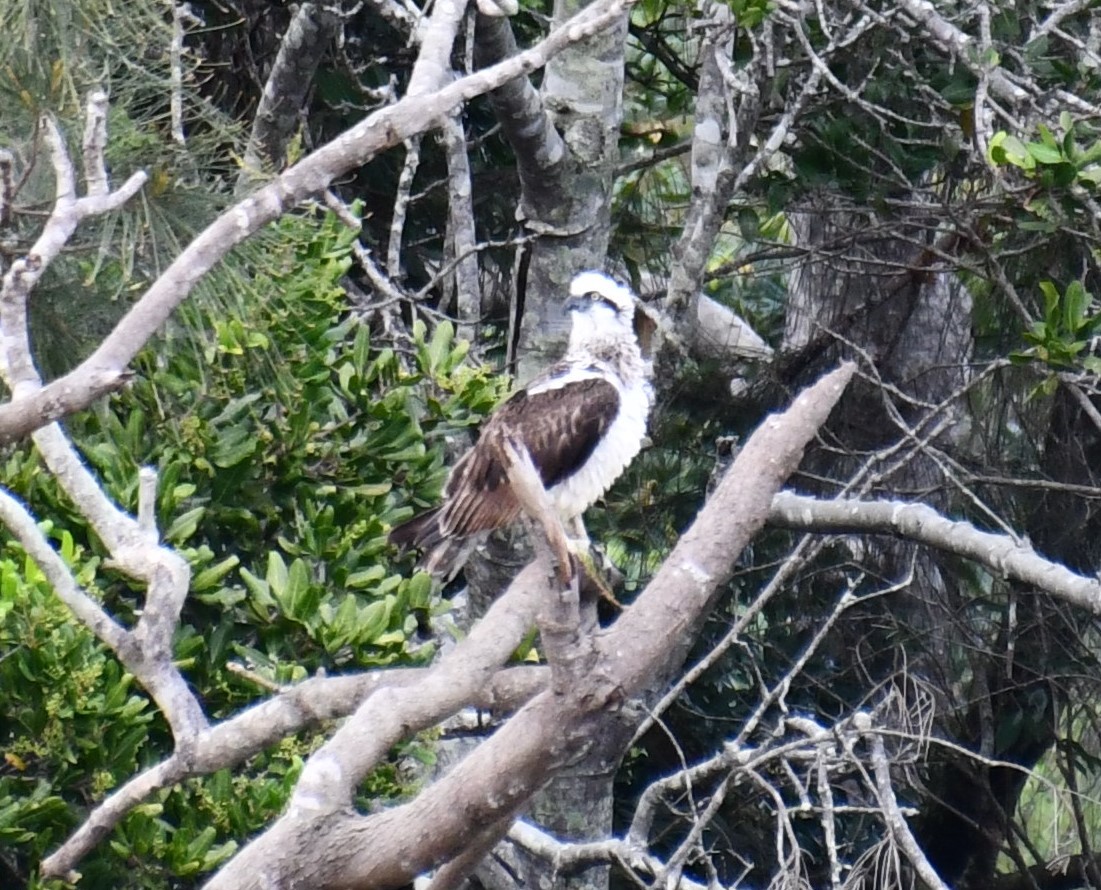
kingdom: Animalia
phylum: Chordata
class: Aves
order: Accipitriformes
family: Pandionidae
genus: Pandion
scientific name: Pandion cristatus
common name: Eastern osprey
